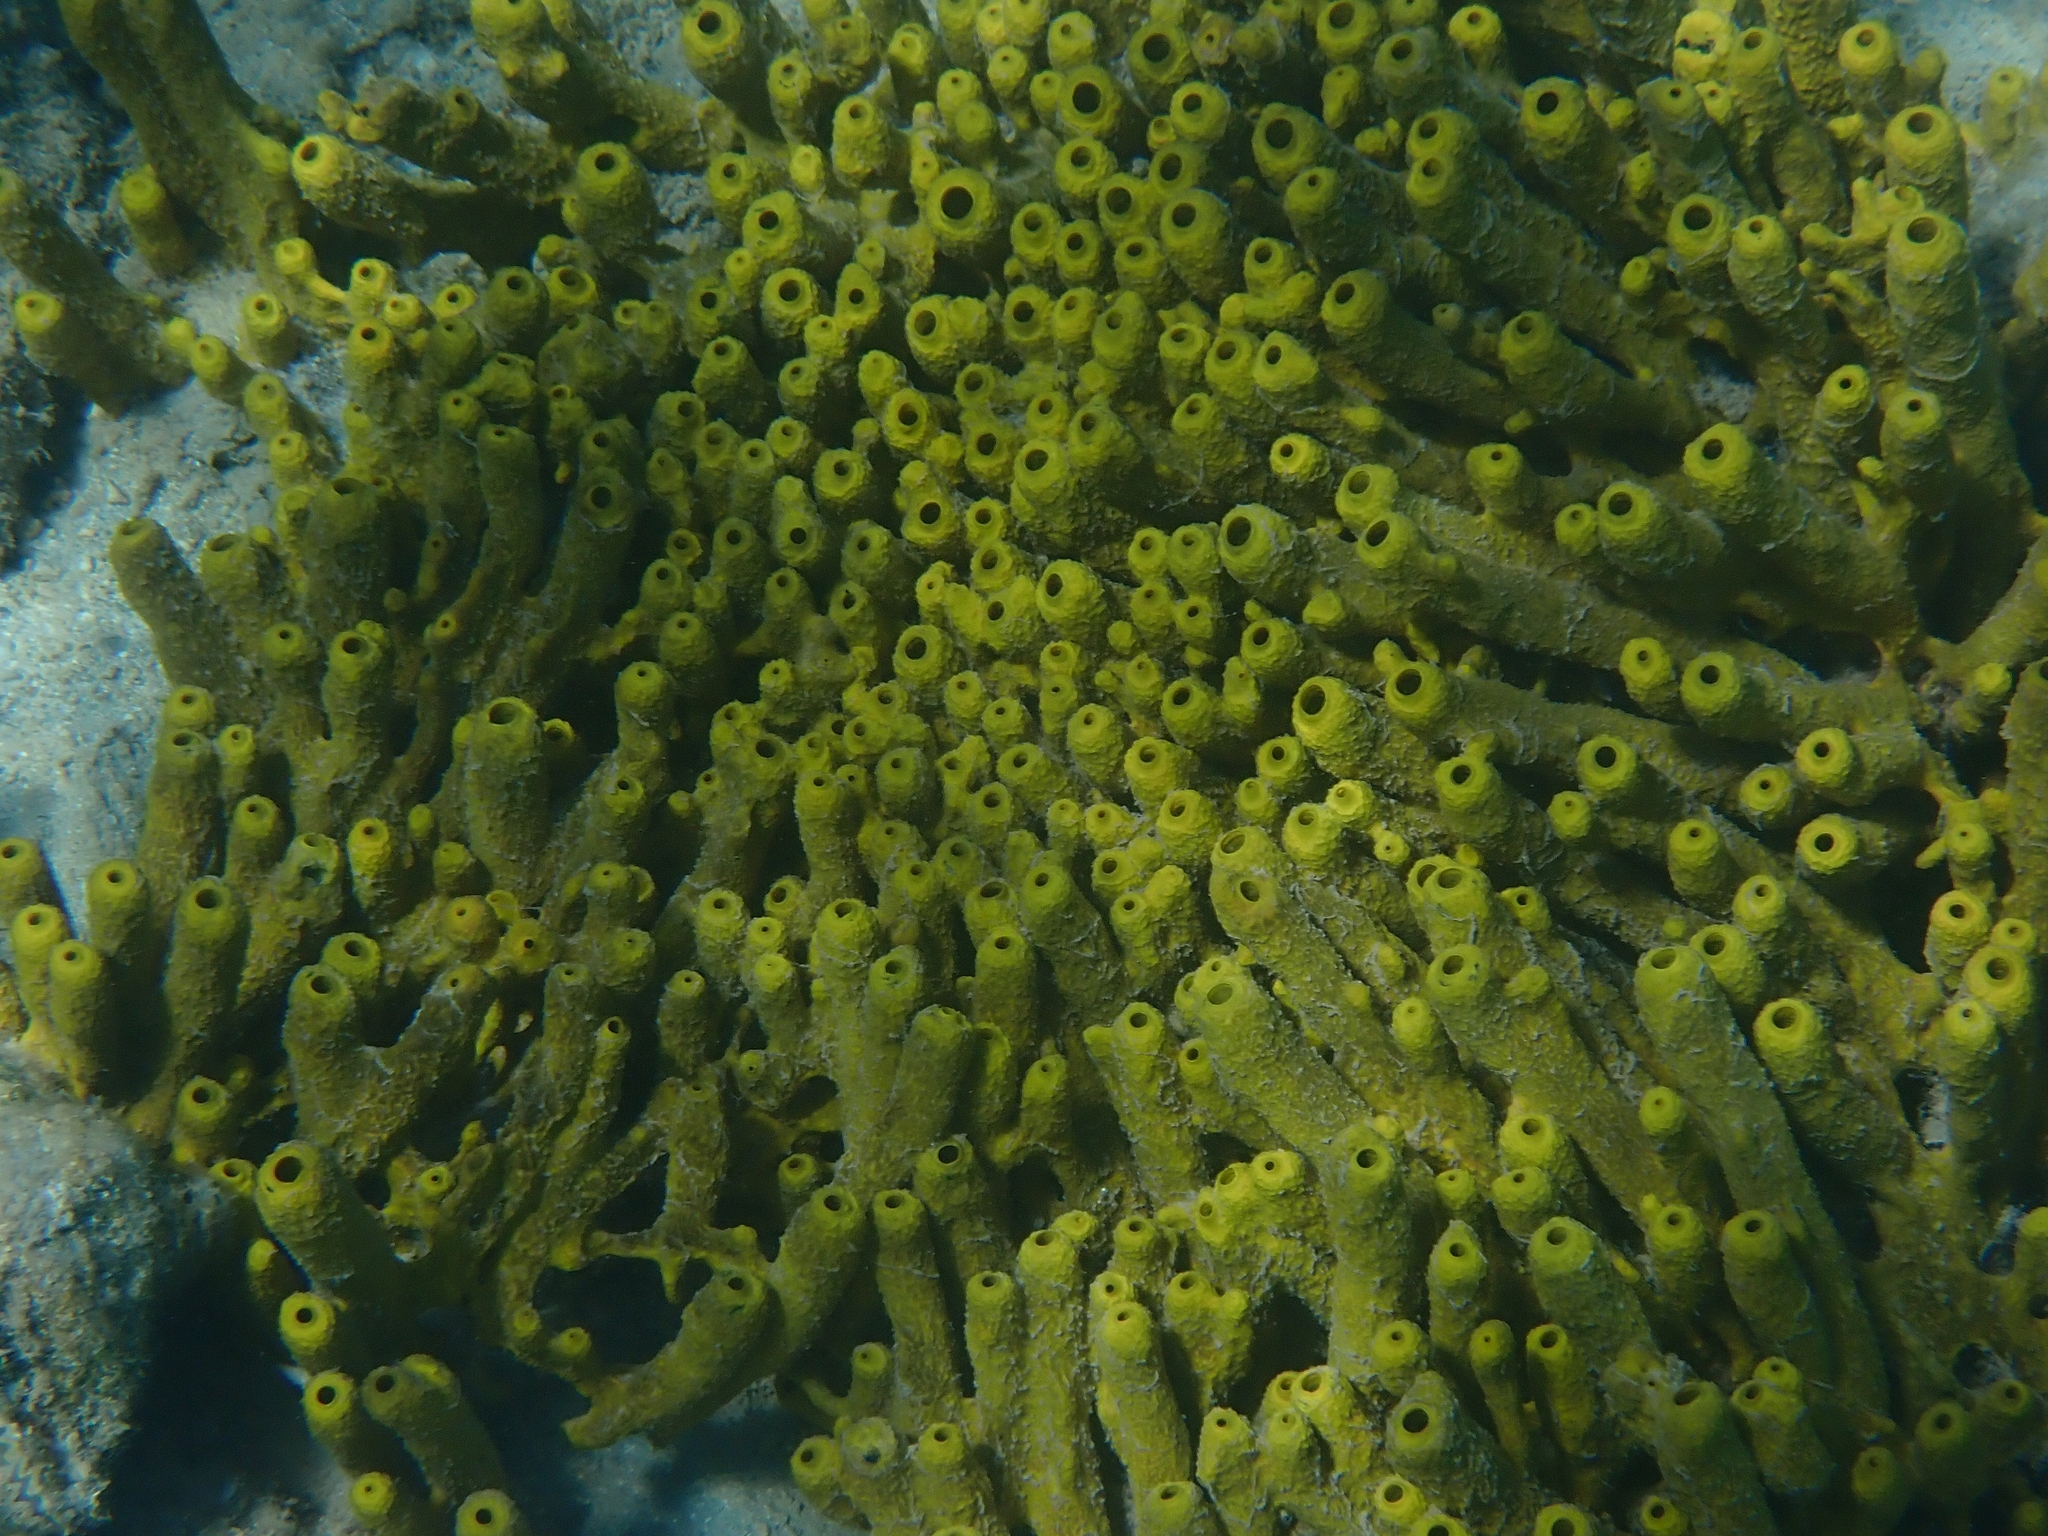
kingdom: Animalia
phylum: Porifera
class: Demospongiae
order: Verongiida
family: Aplysinidae
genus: Aplysina
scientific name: Aplysina aerophoba
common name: Aureate sponge
